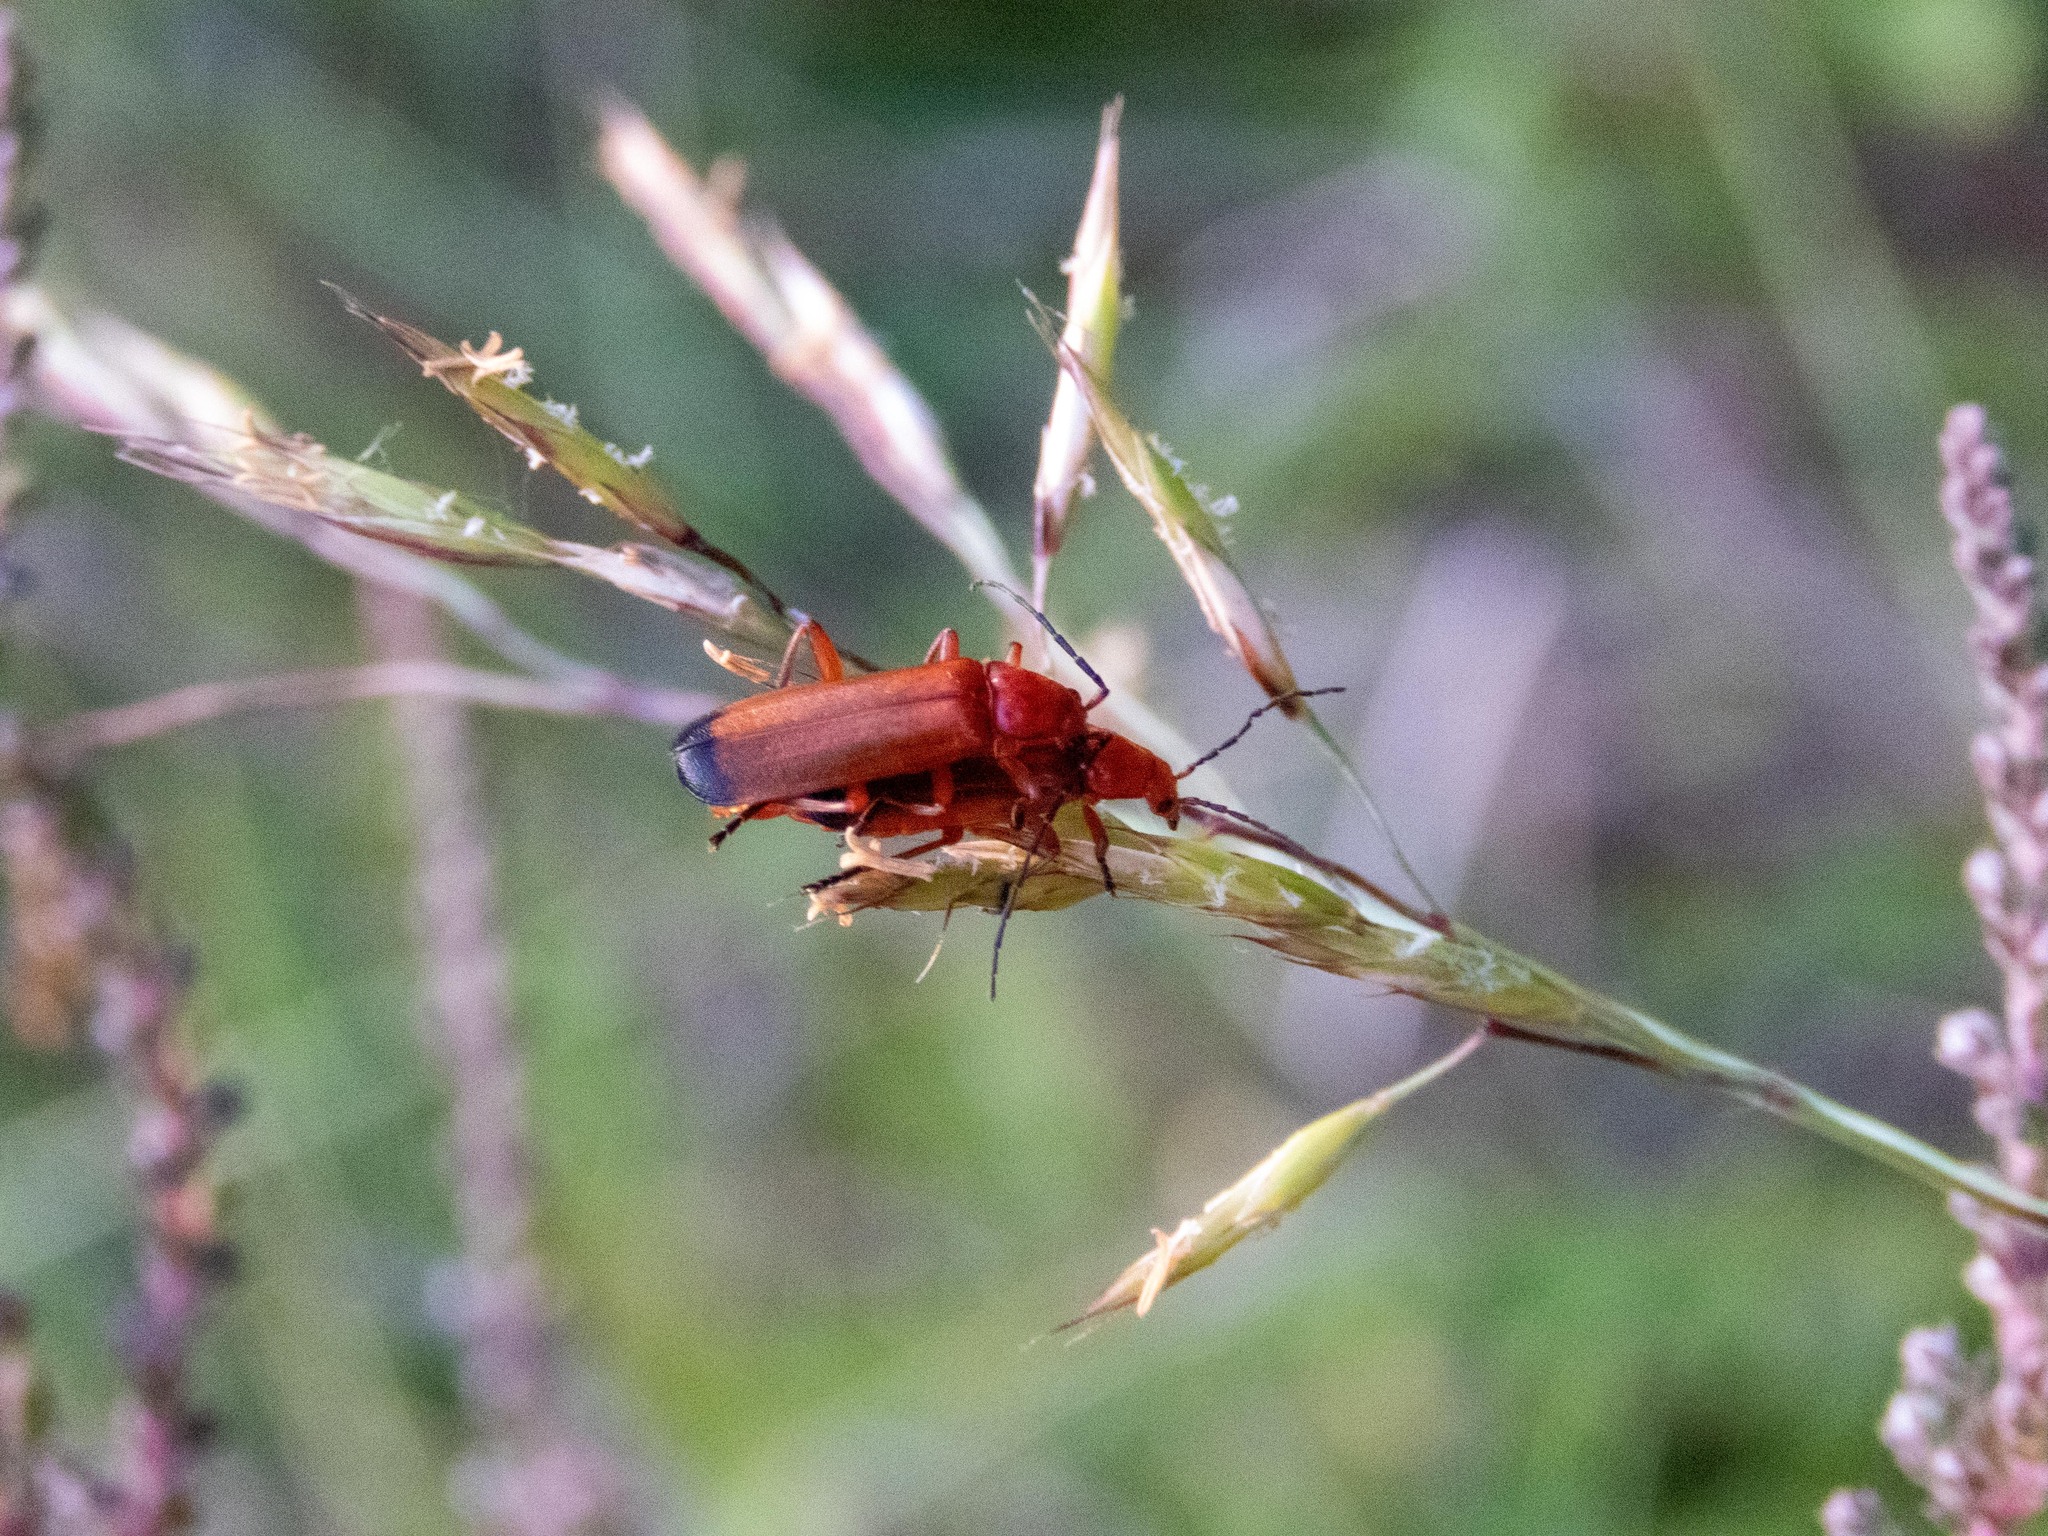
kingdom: Animalia
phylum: Arthropoda
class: Insecta
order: Coleoptera
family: Cantharidae
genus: Rhagonycha
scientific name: Rhagonycha fulva
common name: Common red soldier beetle
